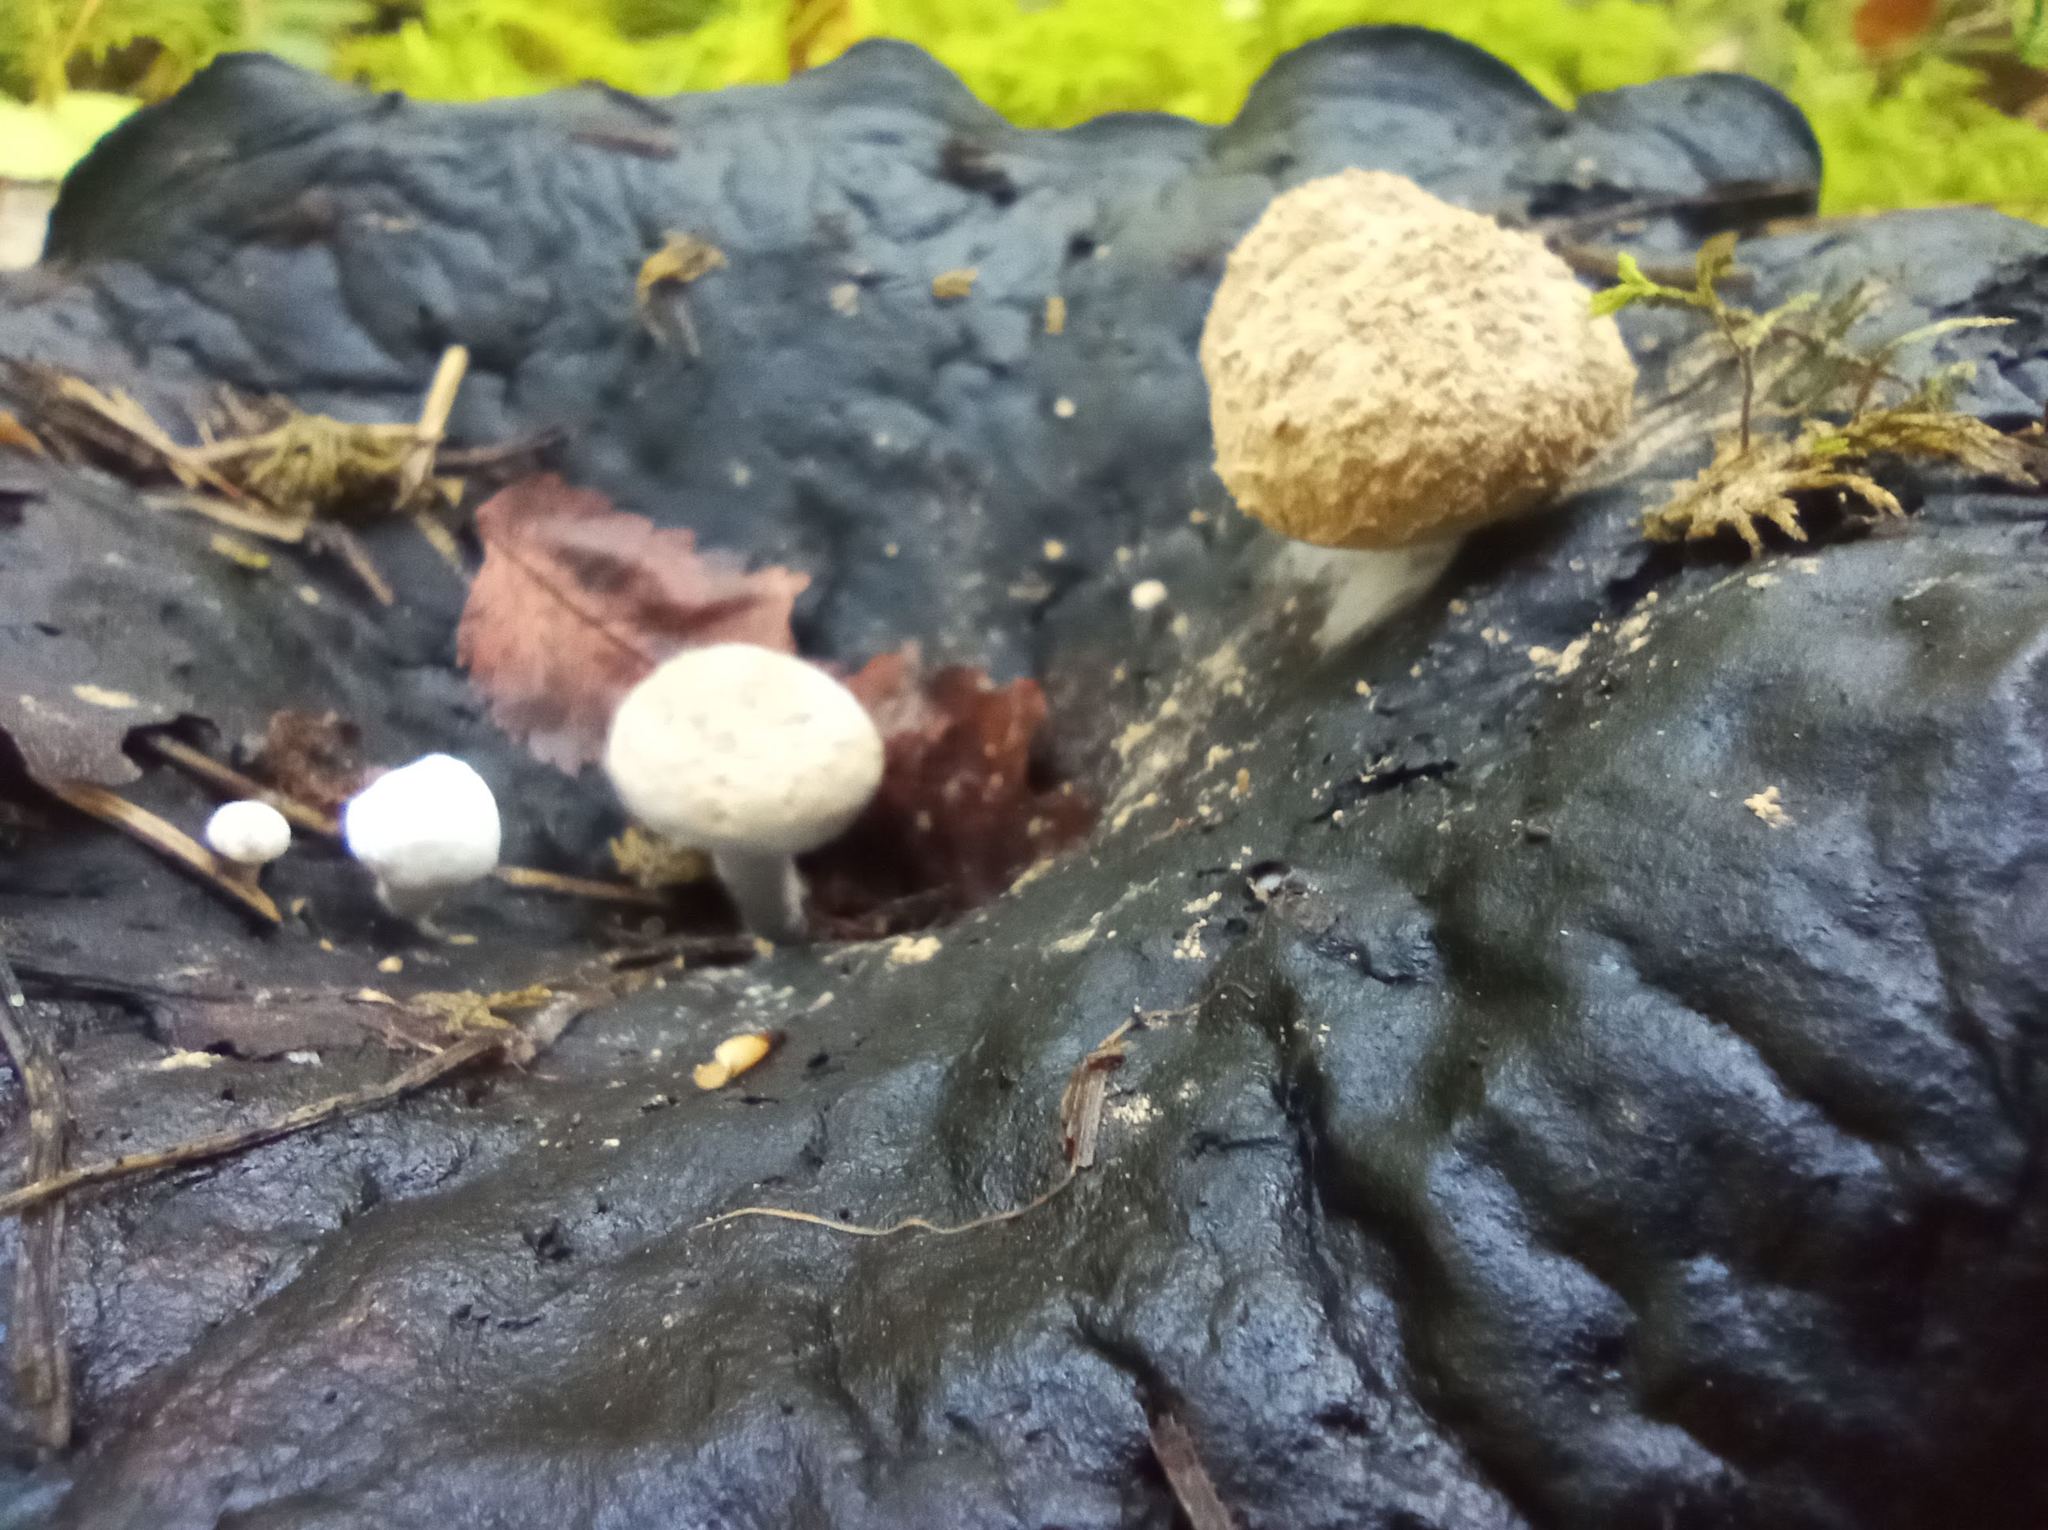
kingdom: Fungi
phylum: Basidiomycota
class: Agaricomycetes
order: Agaricales
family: Lyophyllaceae
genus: Asterophora
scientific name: Asterophora lycoperdoides
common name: Pick-a-back toadstool
